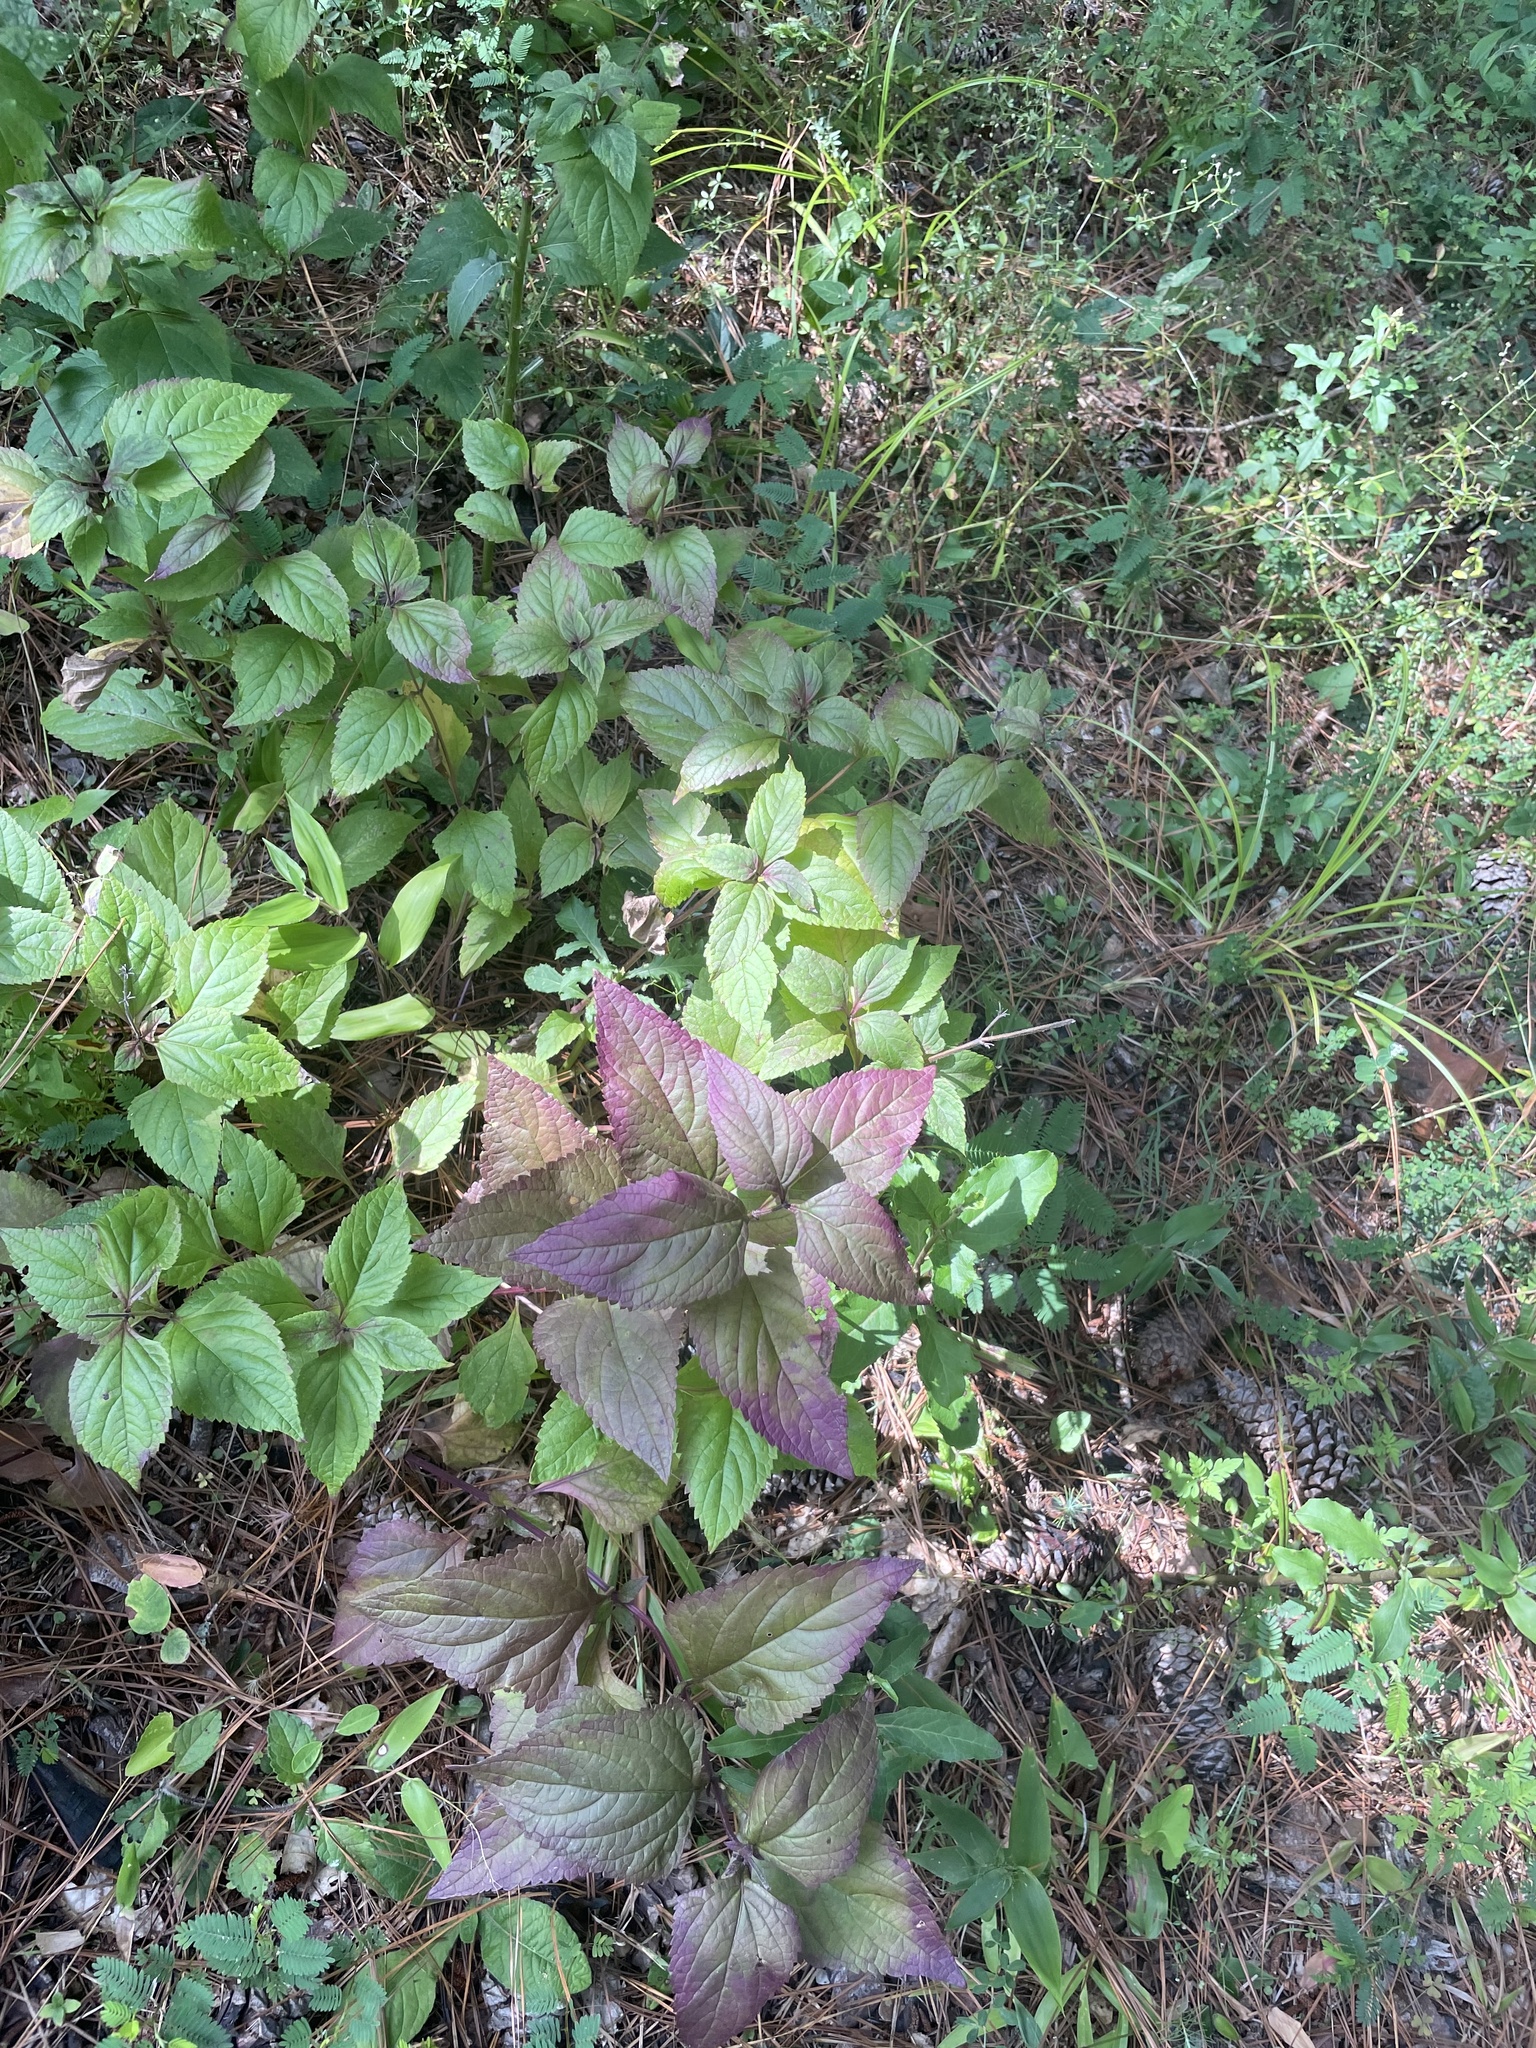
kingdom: Plantae
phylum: Tracheophyta
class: Magnoliopsida
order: Lamiales
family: Lamiaceae
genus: Salvia
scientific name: Salvia urticifolia
